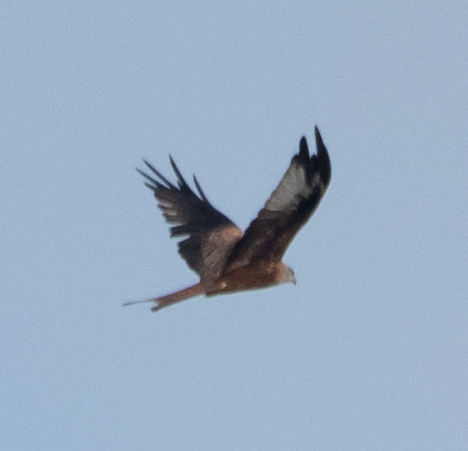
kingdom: Animalia
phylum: Chordata
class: Aves
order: Accipitriformes
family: Accipitridae
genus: Milvus
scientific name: Milvus milvus
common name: Red kite
